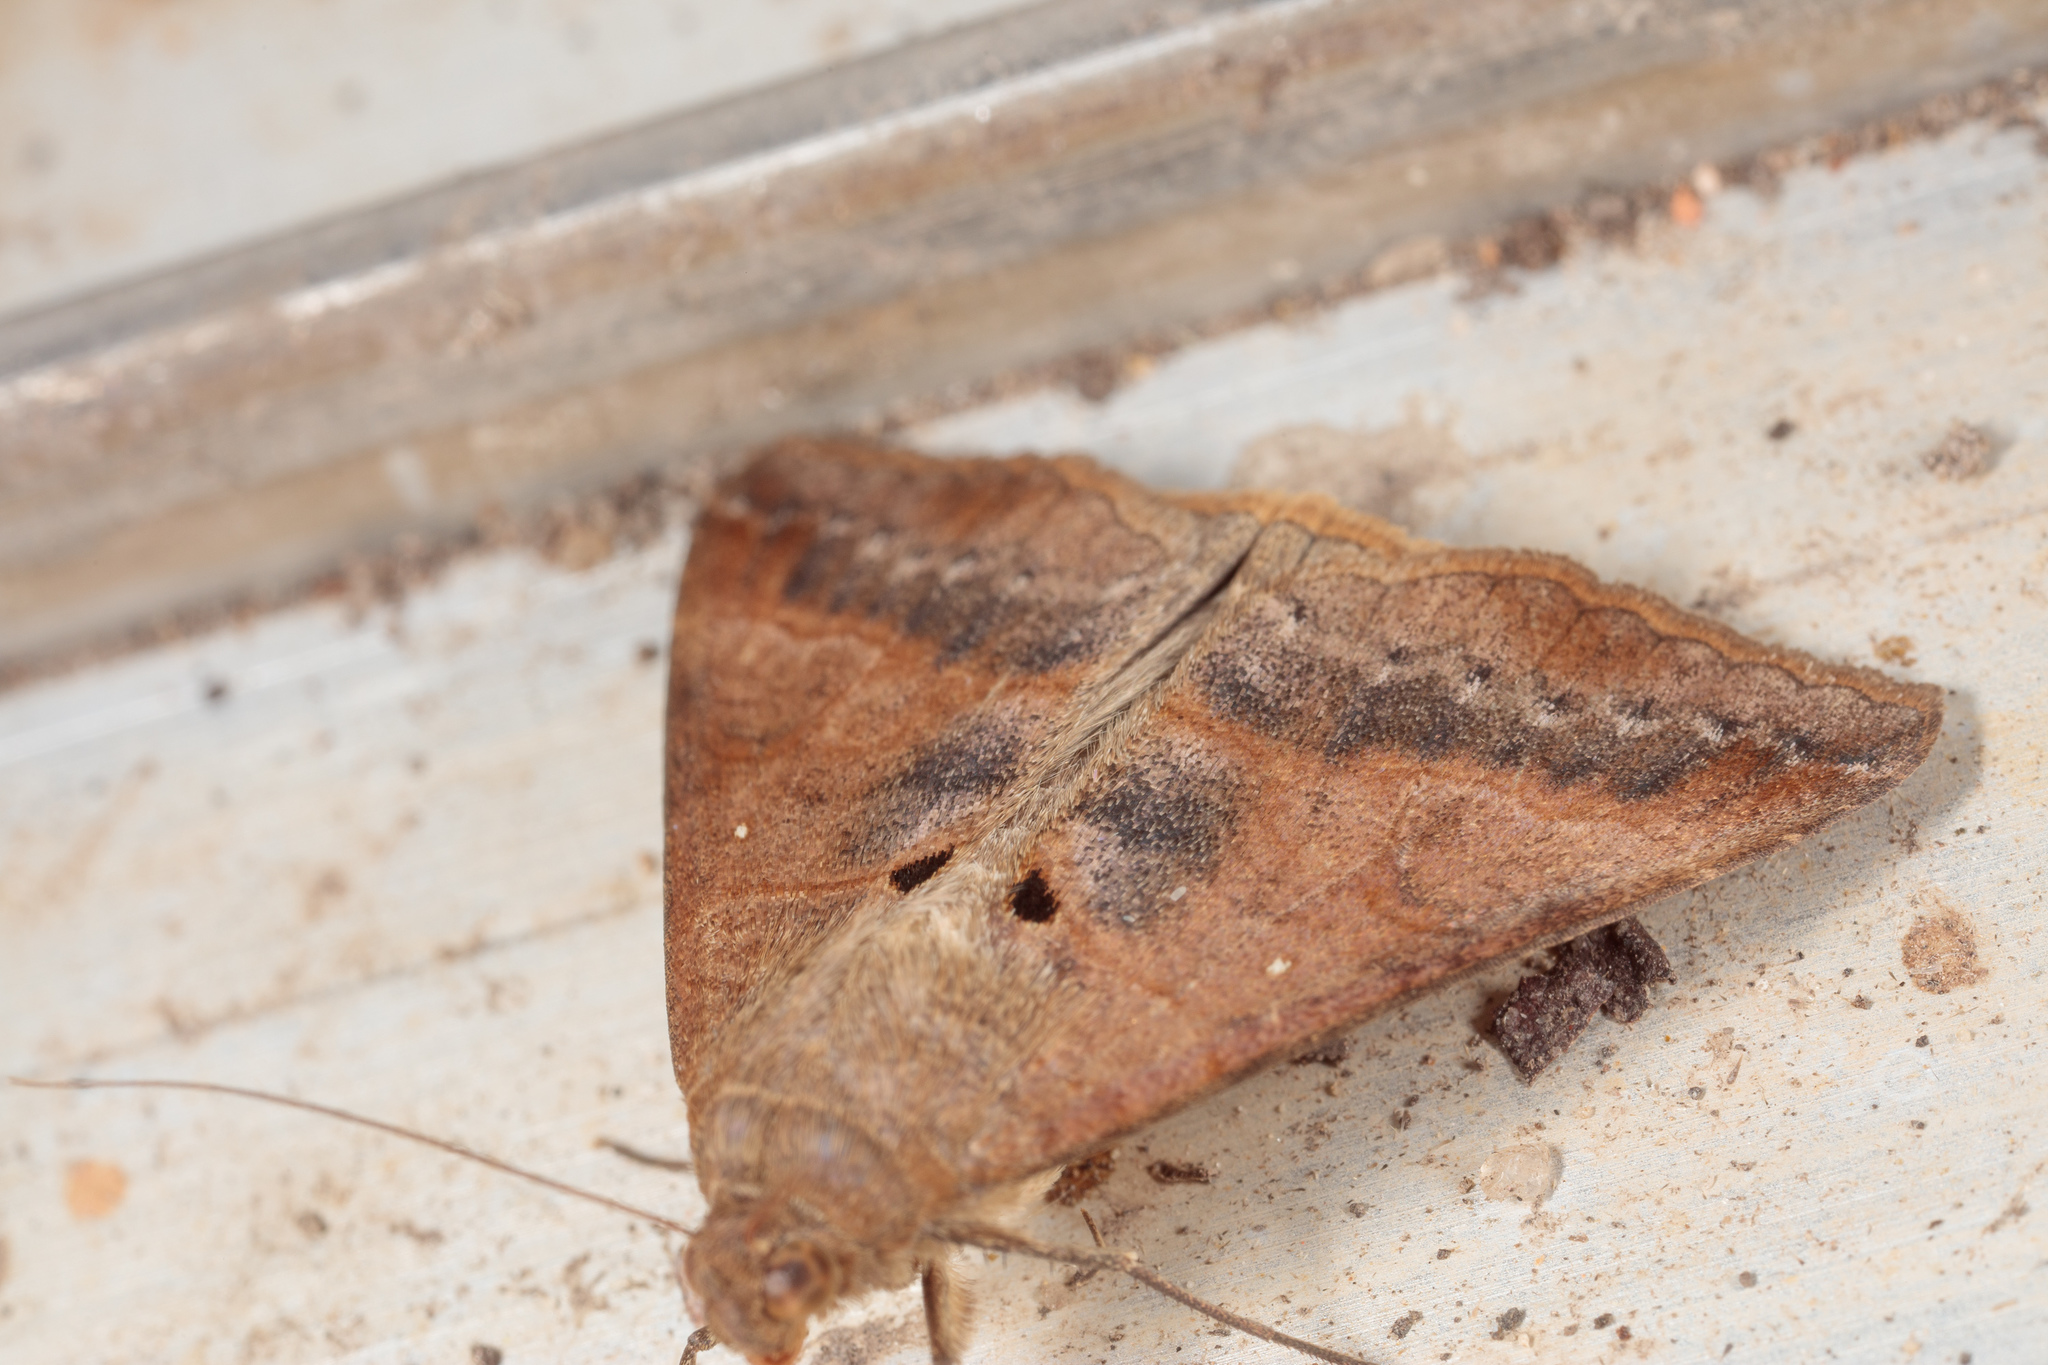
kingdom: Animalia
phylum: Arthropoda
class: Insecta
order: Lepidoptera
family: Erebidae
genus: Mocis
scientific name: Mocis latipes
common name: Striped grass looper
